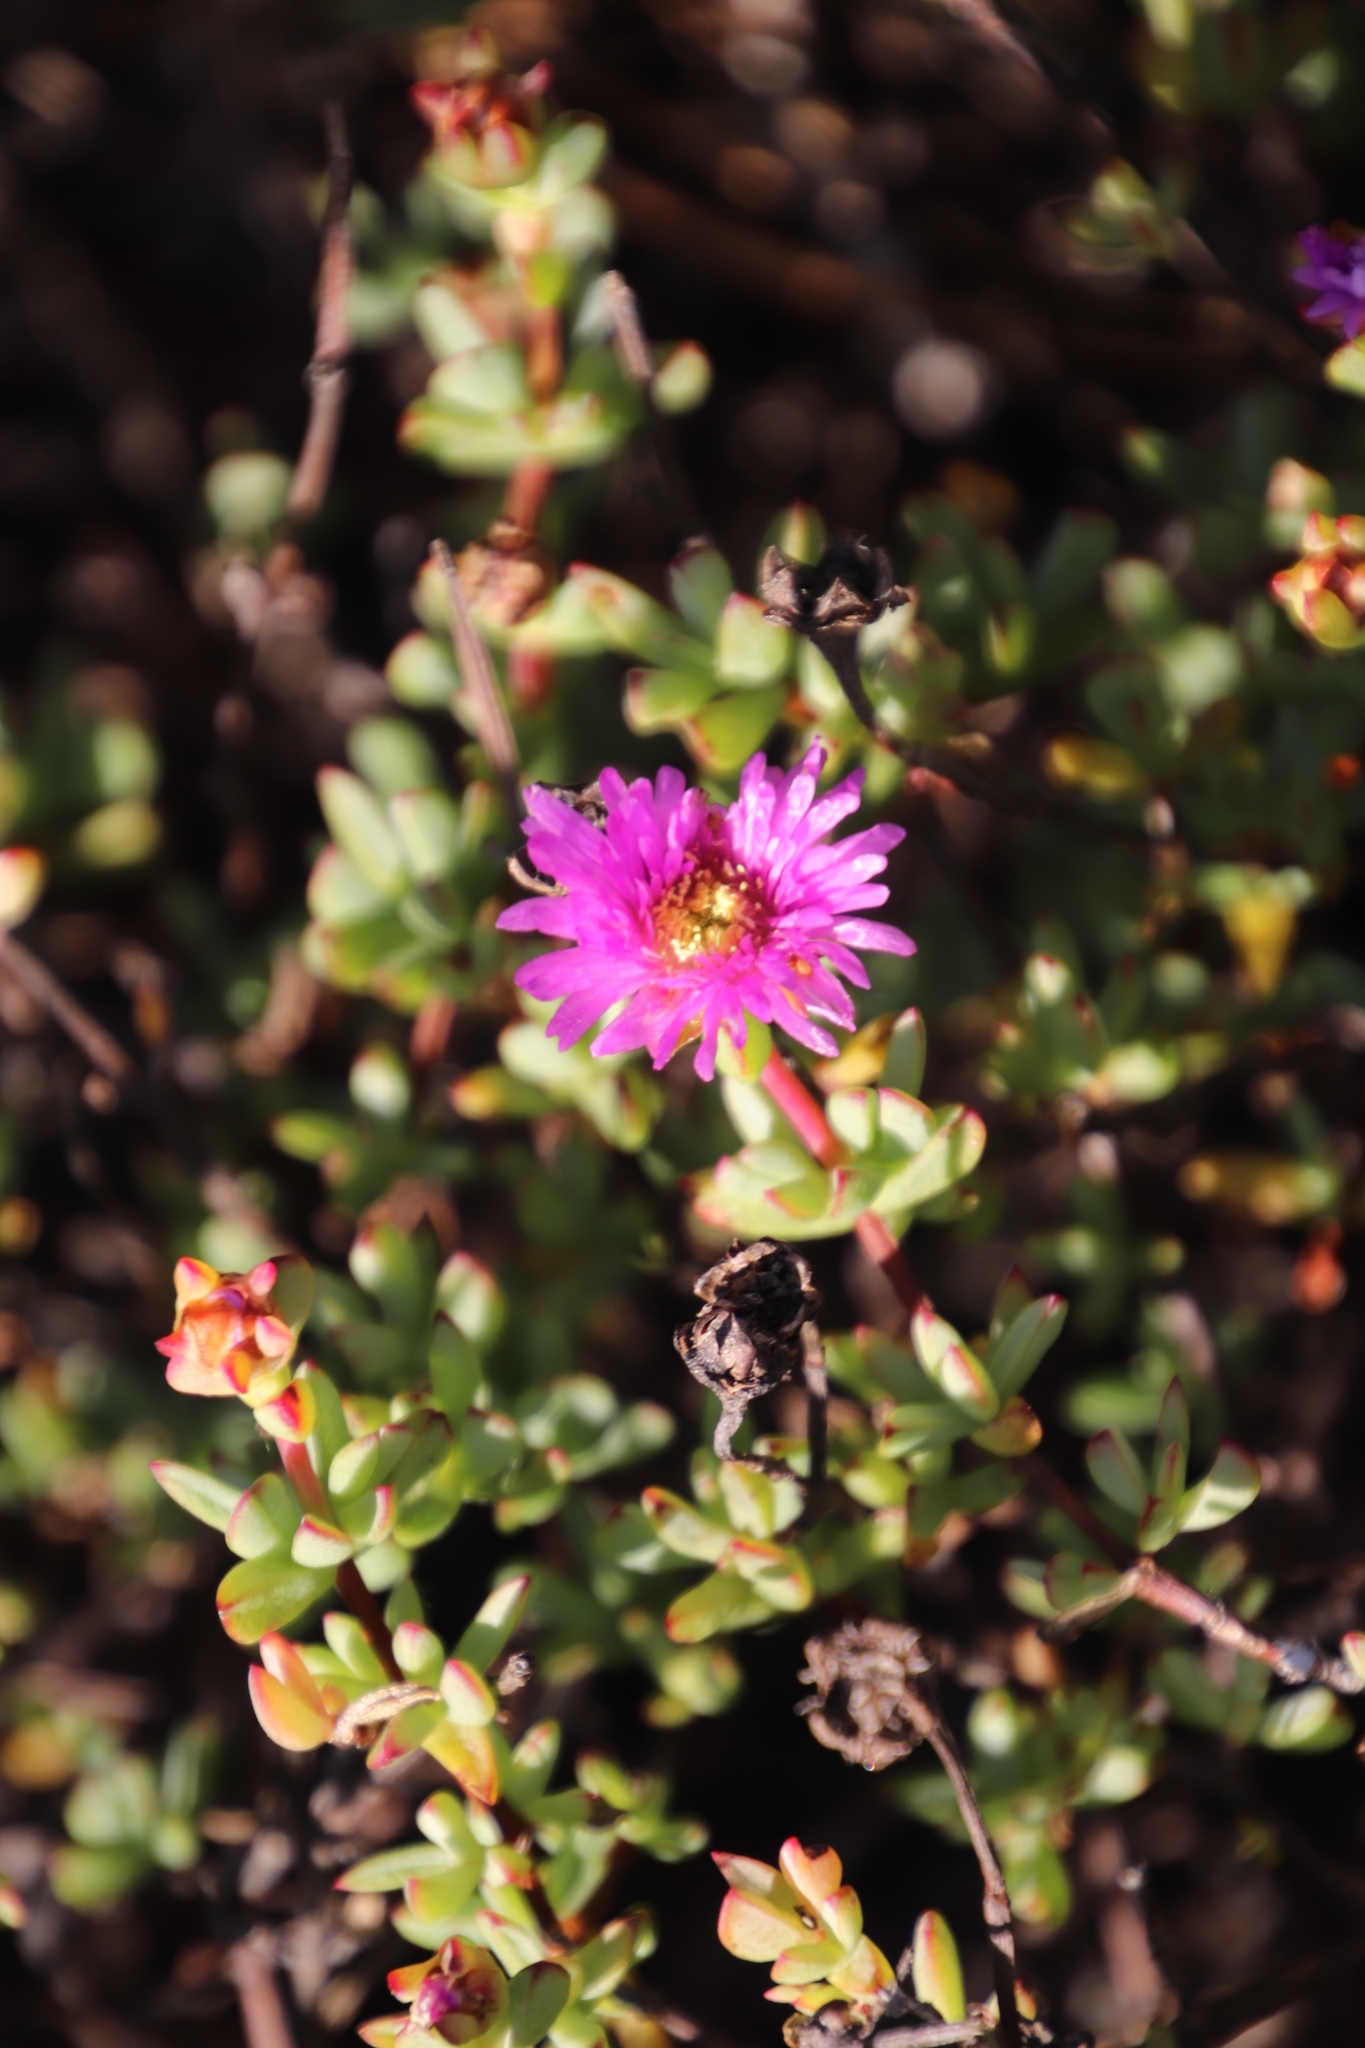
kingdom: Plantae
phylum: Tracheophyta
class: Magnoliopsida
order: Caryophyllales
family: Aizoaceae
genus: Oscularia
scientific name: Oscularia falciformis
